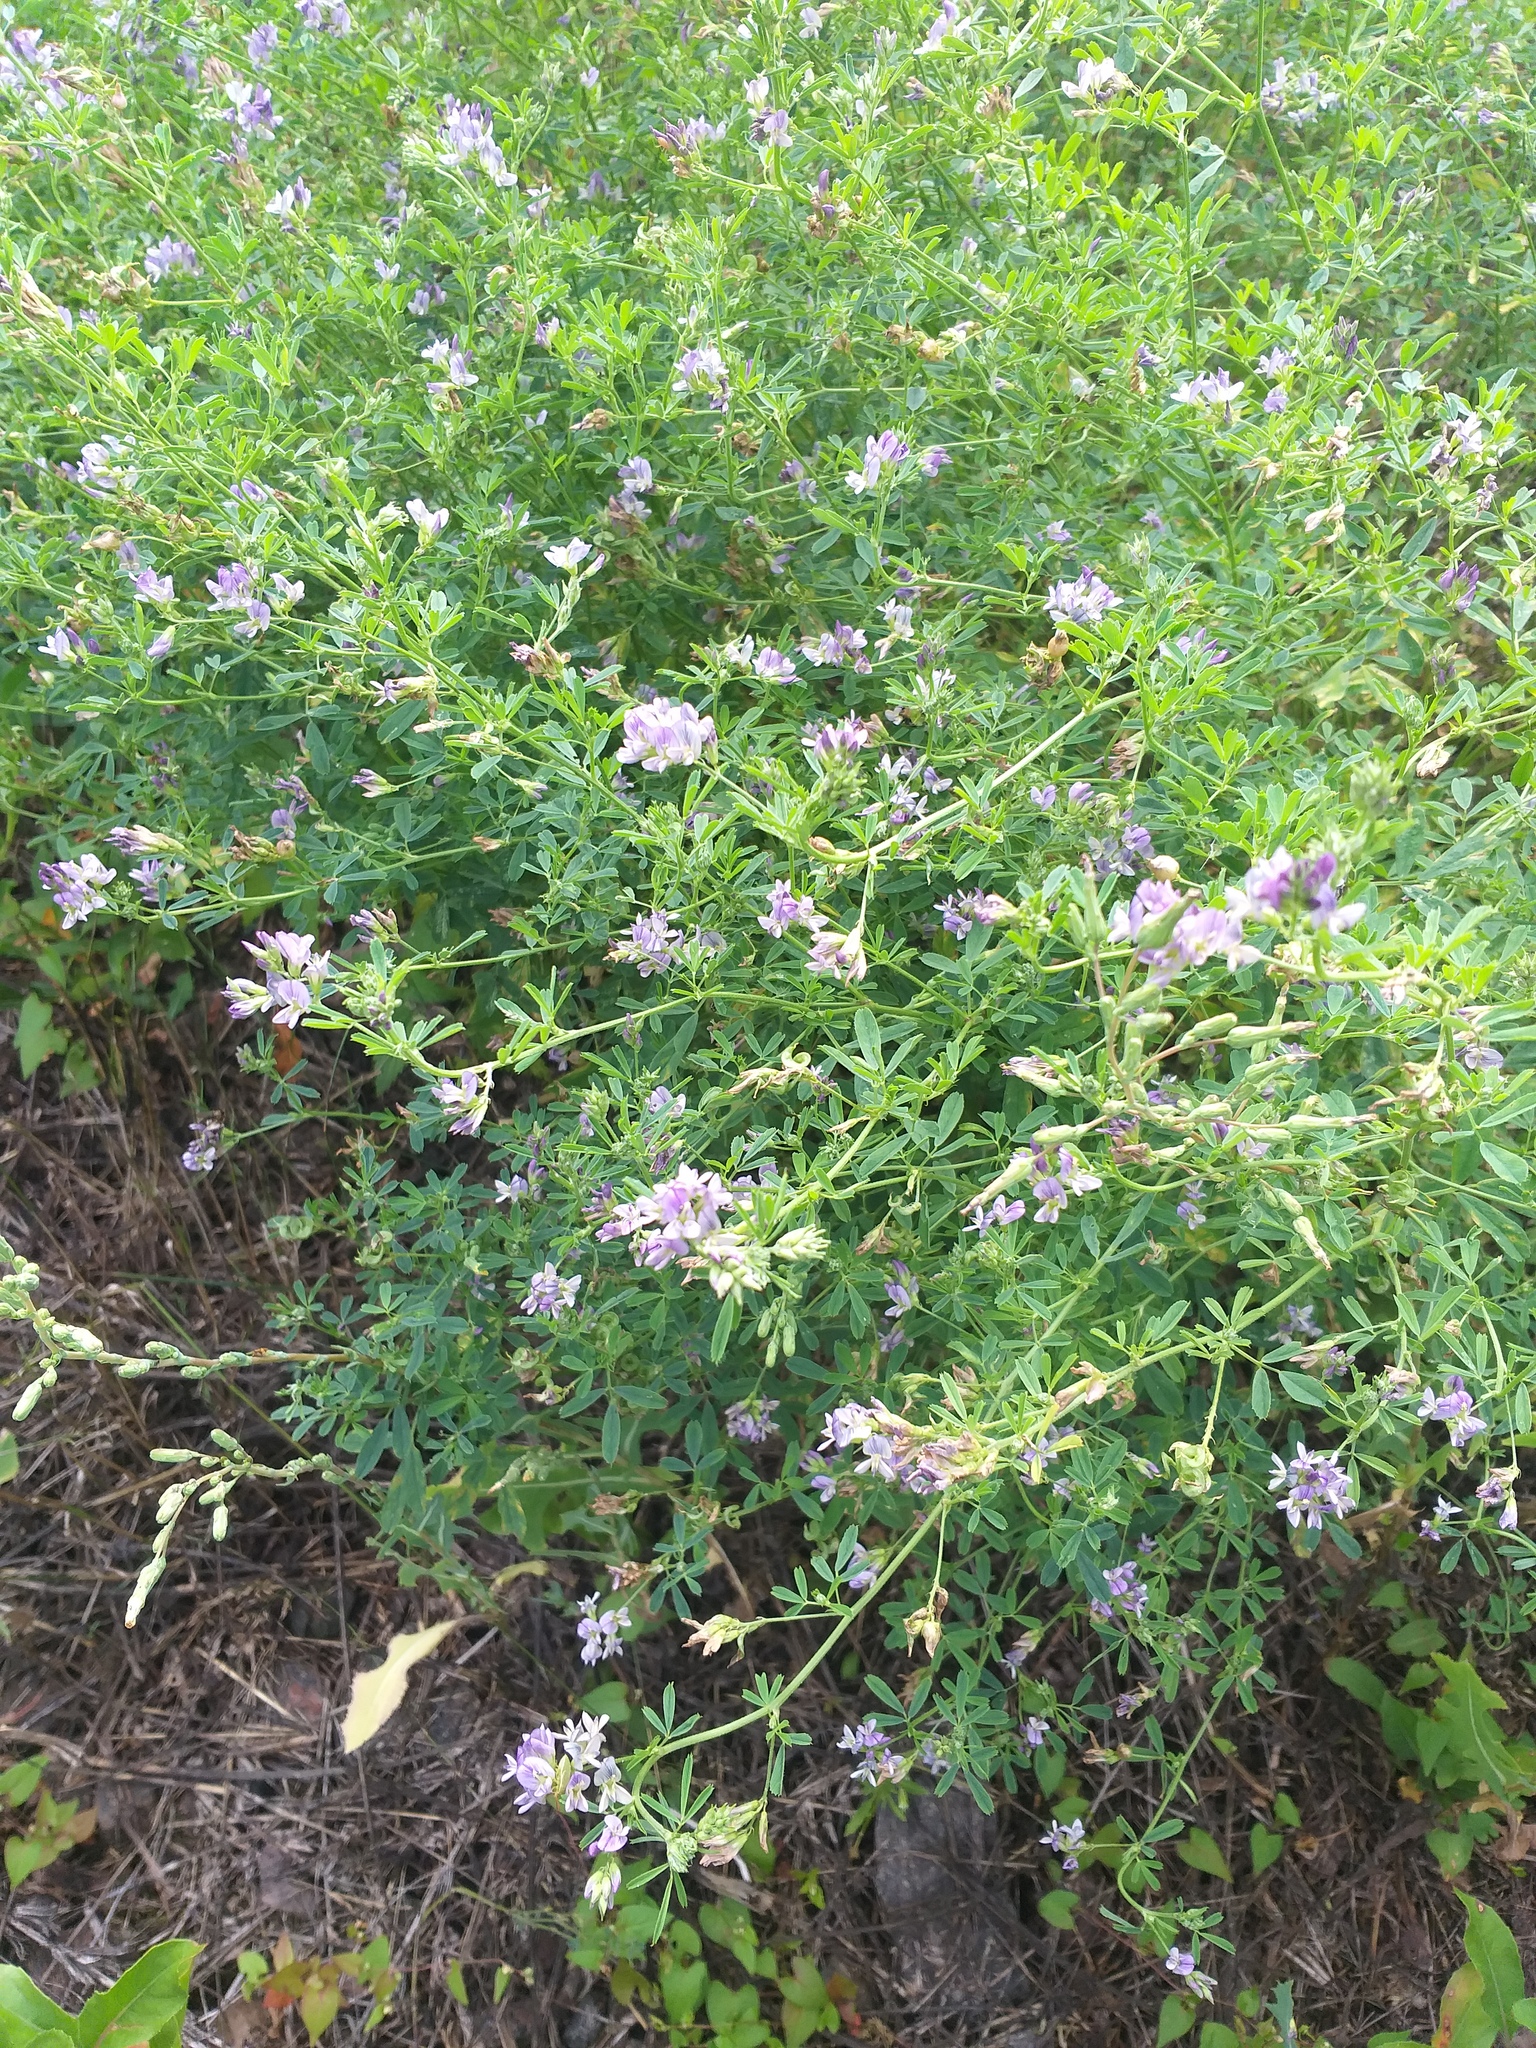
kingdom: Plantae
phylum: Tracheophyta
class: Magnoliopsida
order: Fabales
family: Fabaceae
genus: Medicago
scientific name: Medicago varia
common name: Sand lucerne
